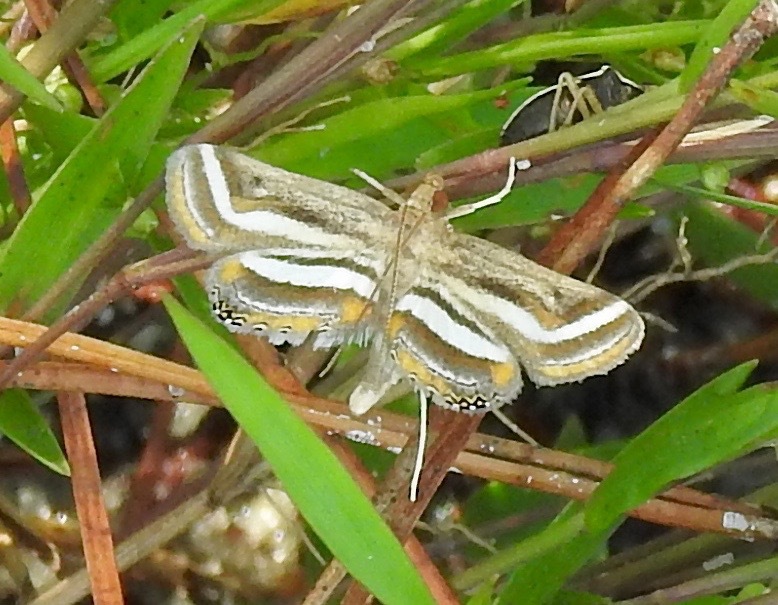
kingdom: Animalia
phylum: Arthropoda
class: Insecta
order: Lepidoptera
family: Crambidae
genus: Parapoynx
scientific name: Parapoynx seminealis
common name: Floating-heart waterlily leafcutter
